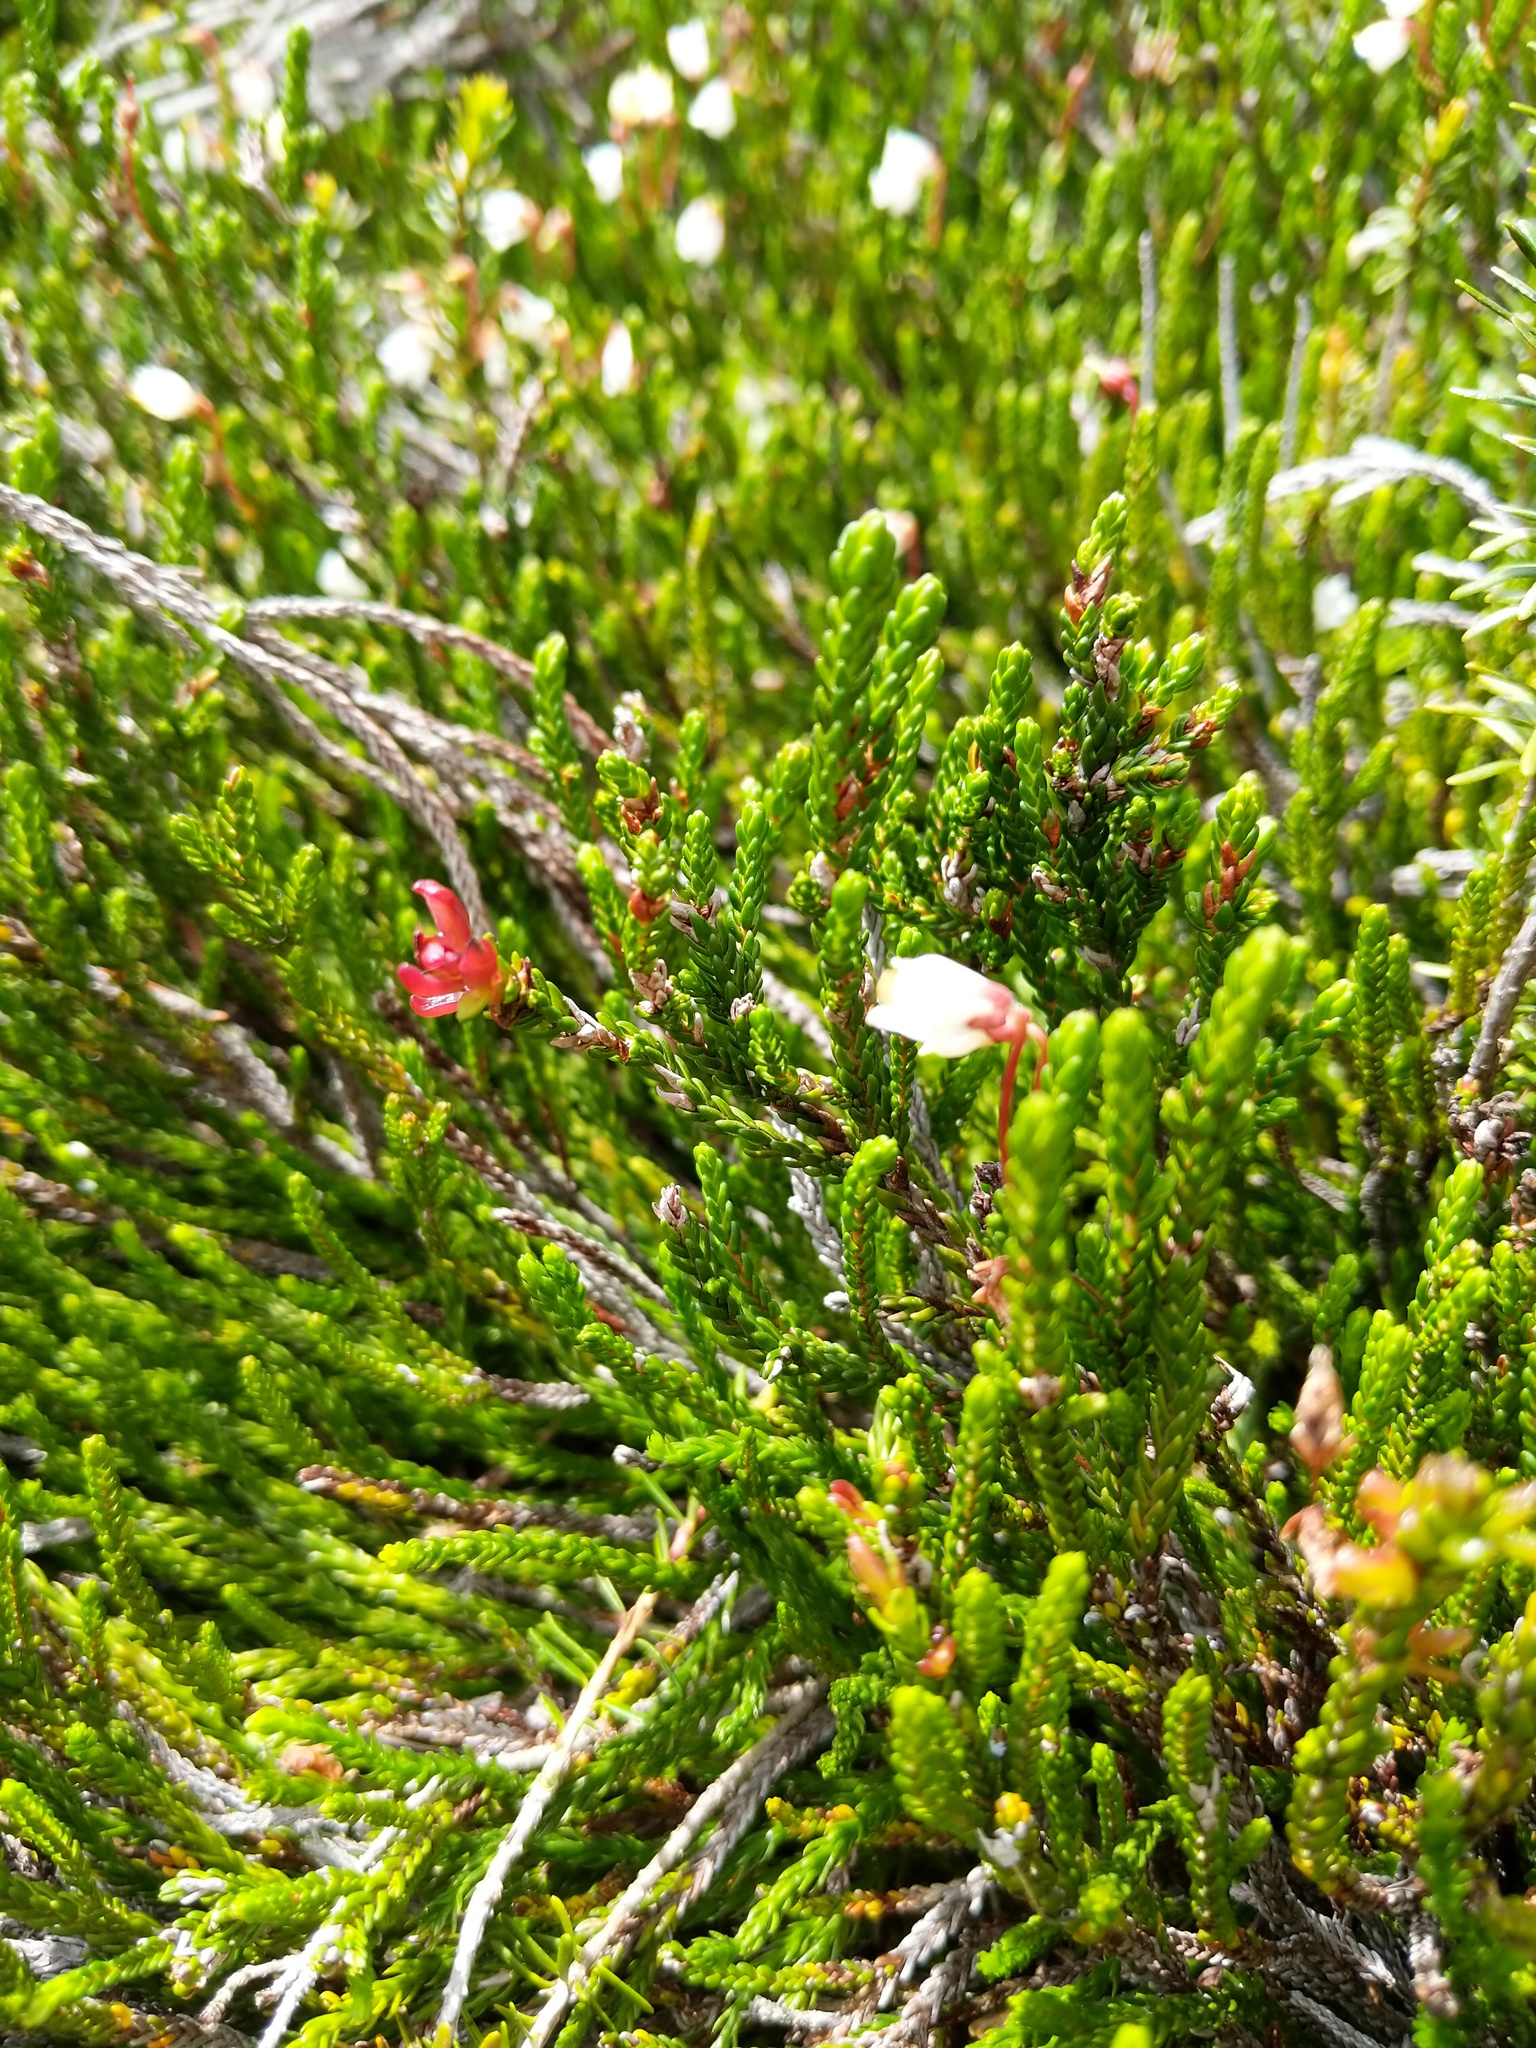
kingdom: Fungi
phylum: Basidiomycota
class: Exobasidiomycetes
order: Exobasidiales
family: Exobasidiaceae
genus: Exobasidium
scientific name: Exobasidium cassiopes
